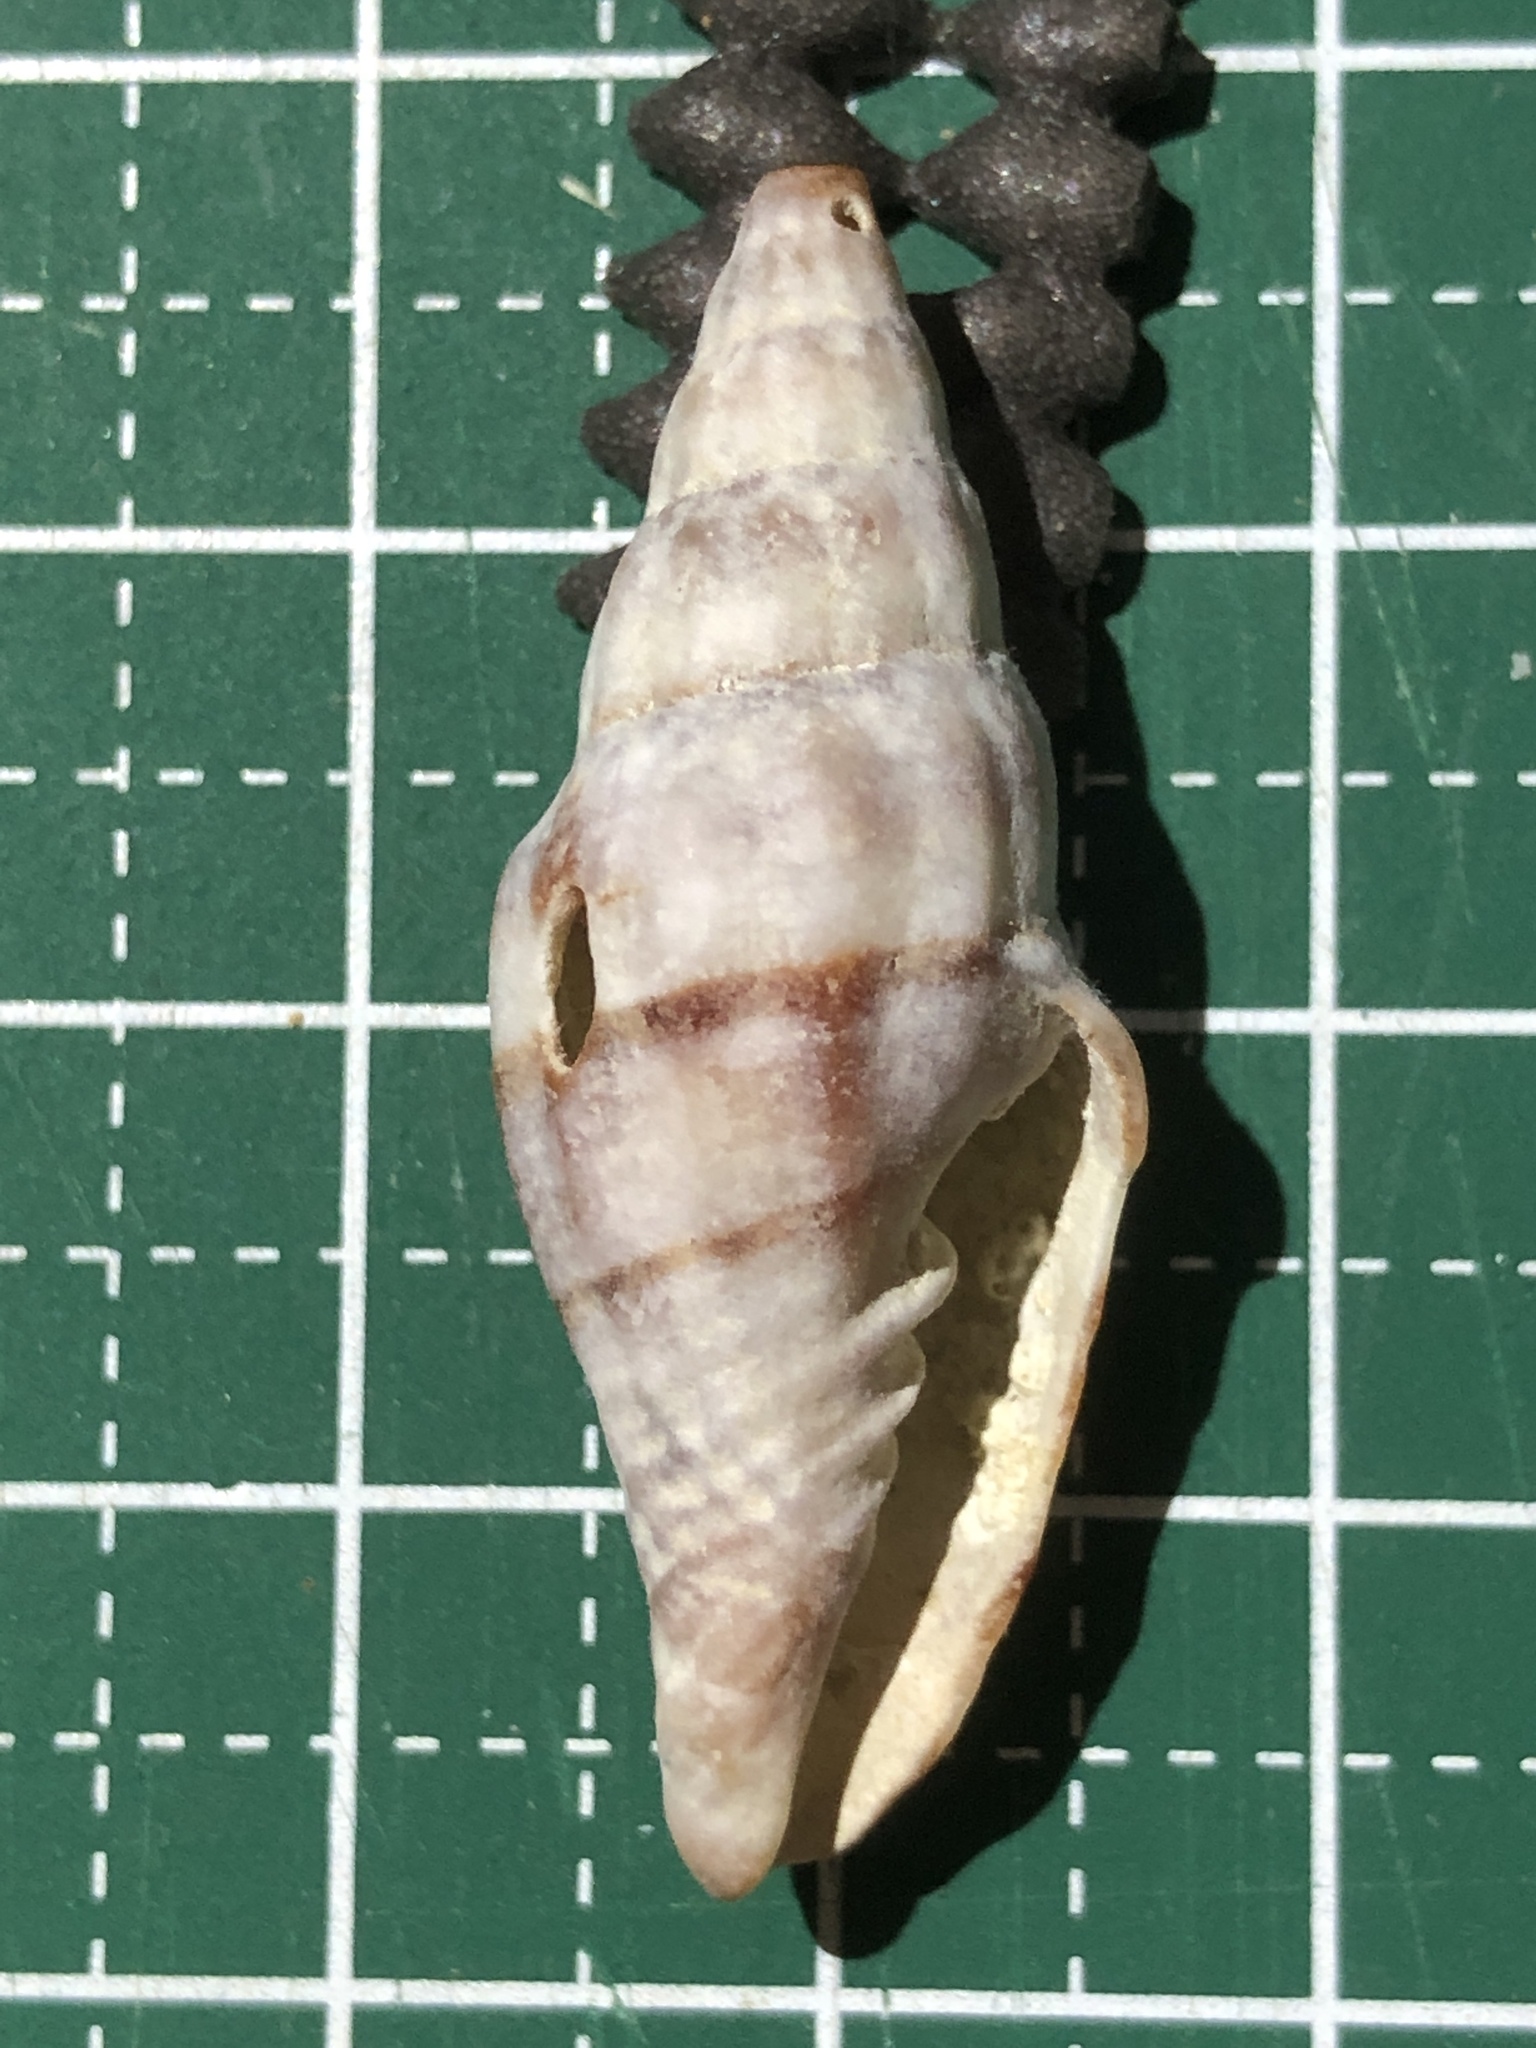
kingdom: Animalia
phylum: Mollusca
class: Gastropoda
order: Neogastropoda
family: Costellariidae
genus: Vexillum
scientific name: Vexillum balteolatum
